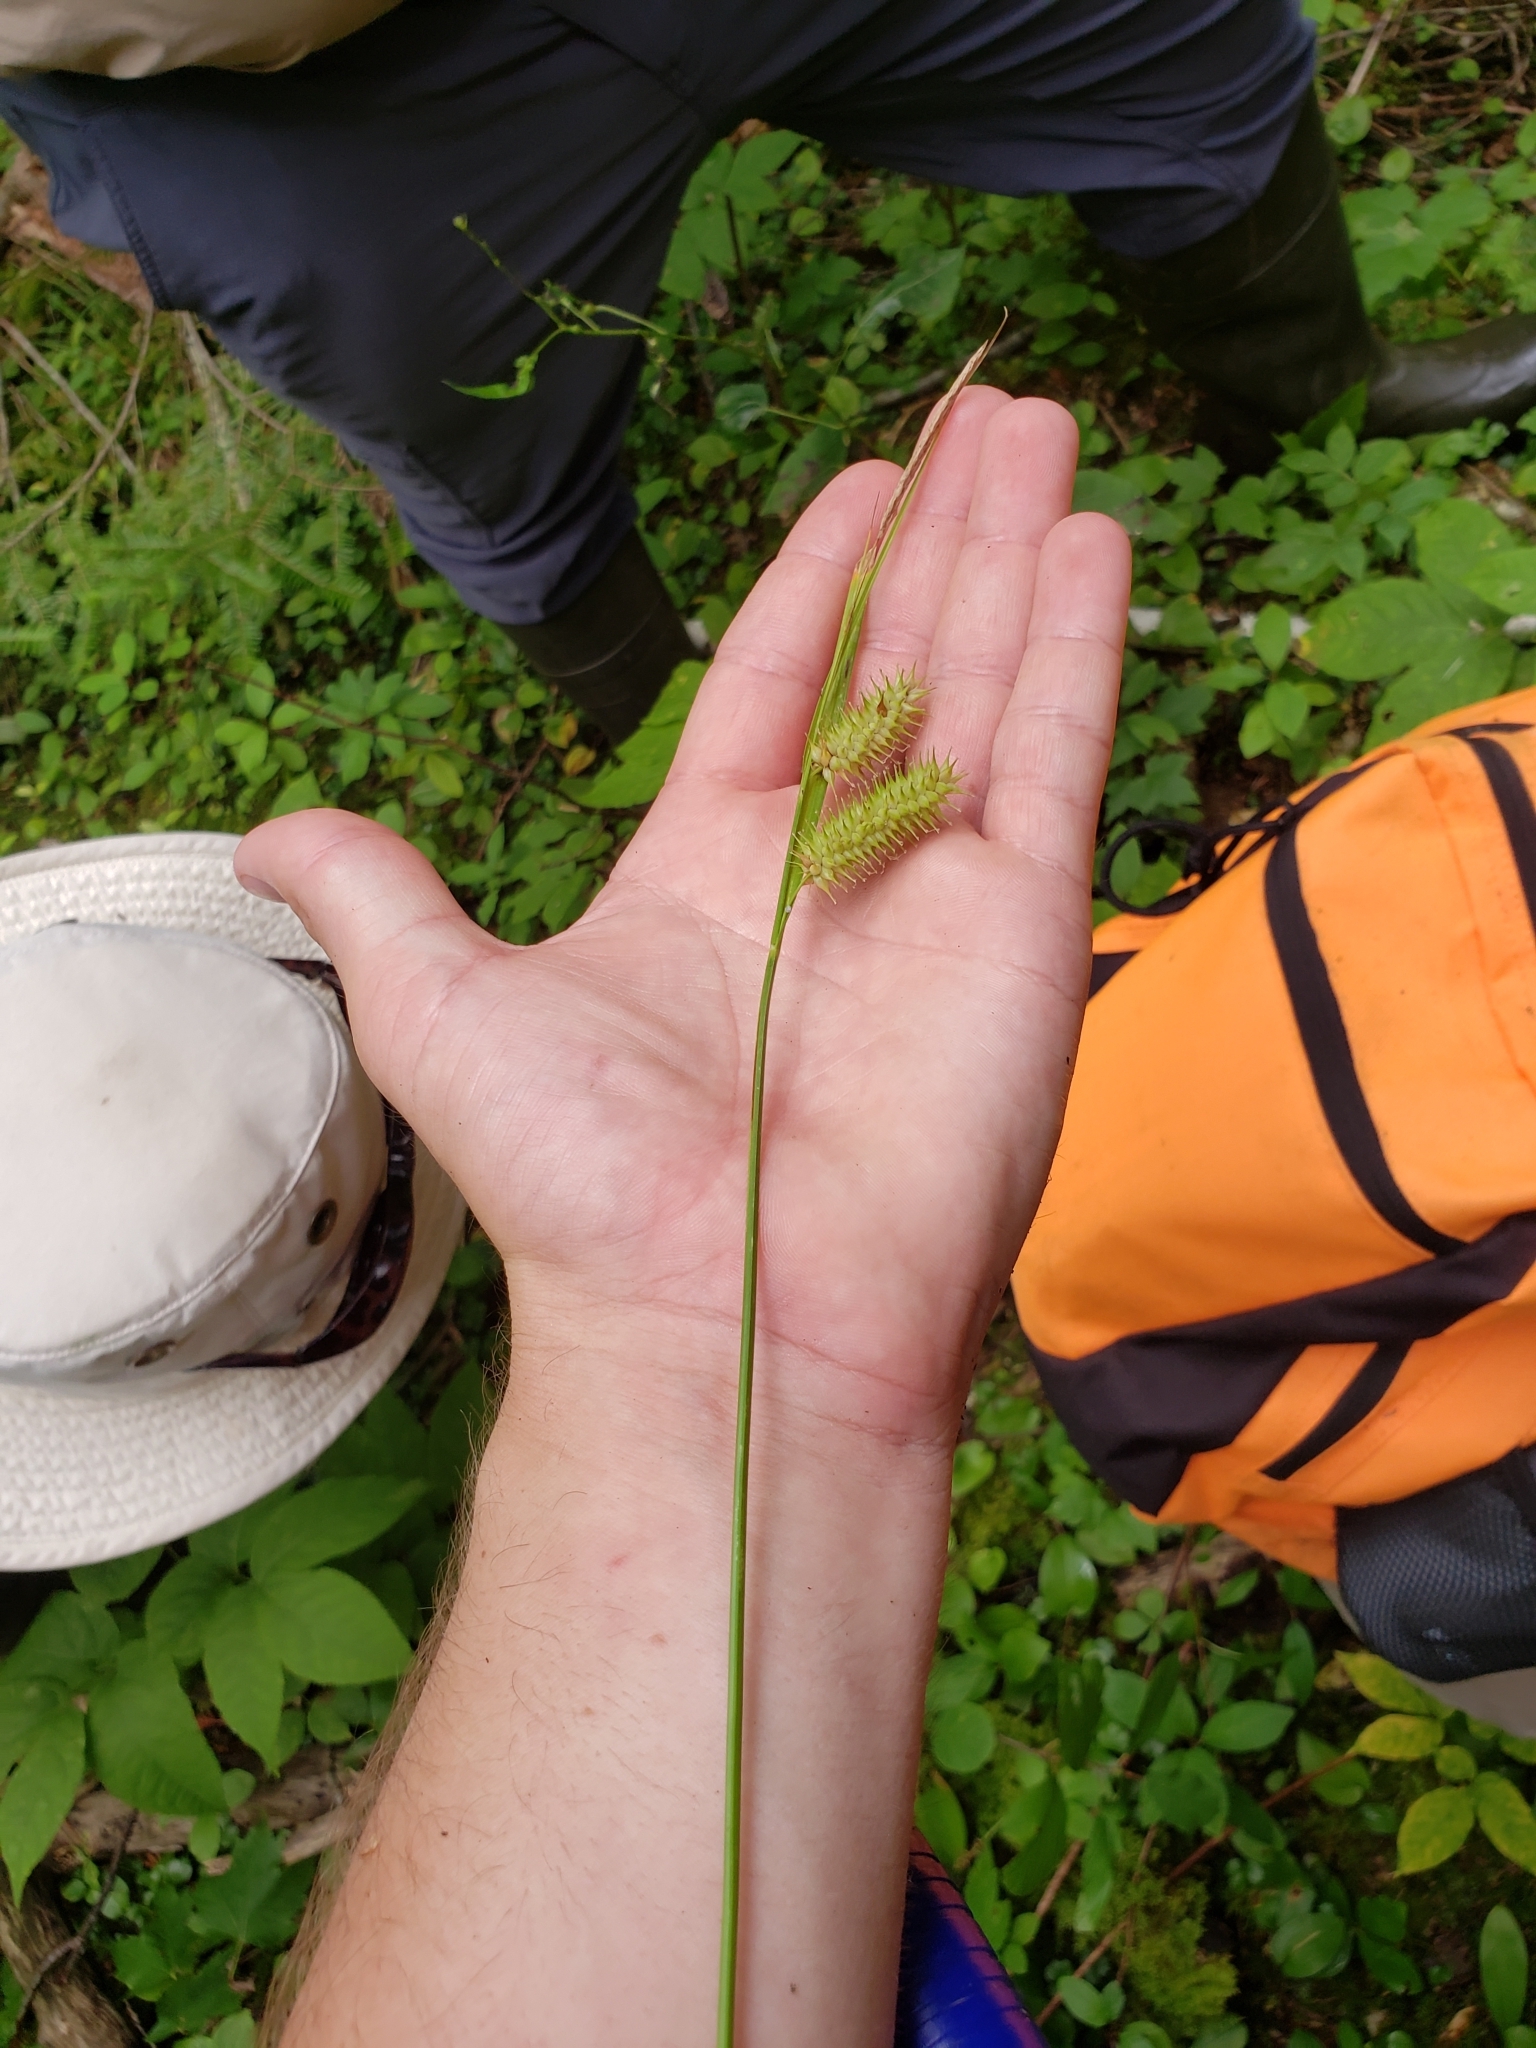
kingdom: Plantae
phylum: Tracheophyta
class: Liliopsida
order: Poales
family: Cyperaceae
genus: Carex
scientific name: Carex hystericina
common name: Bottlebrush sedge
